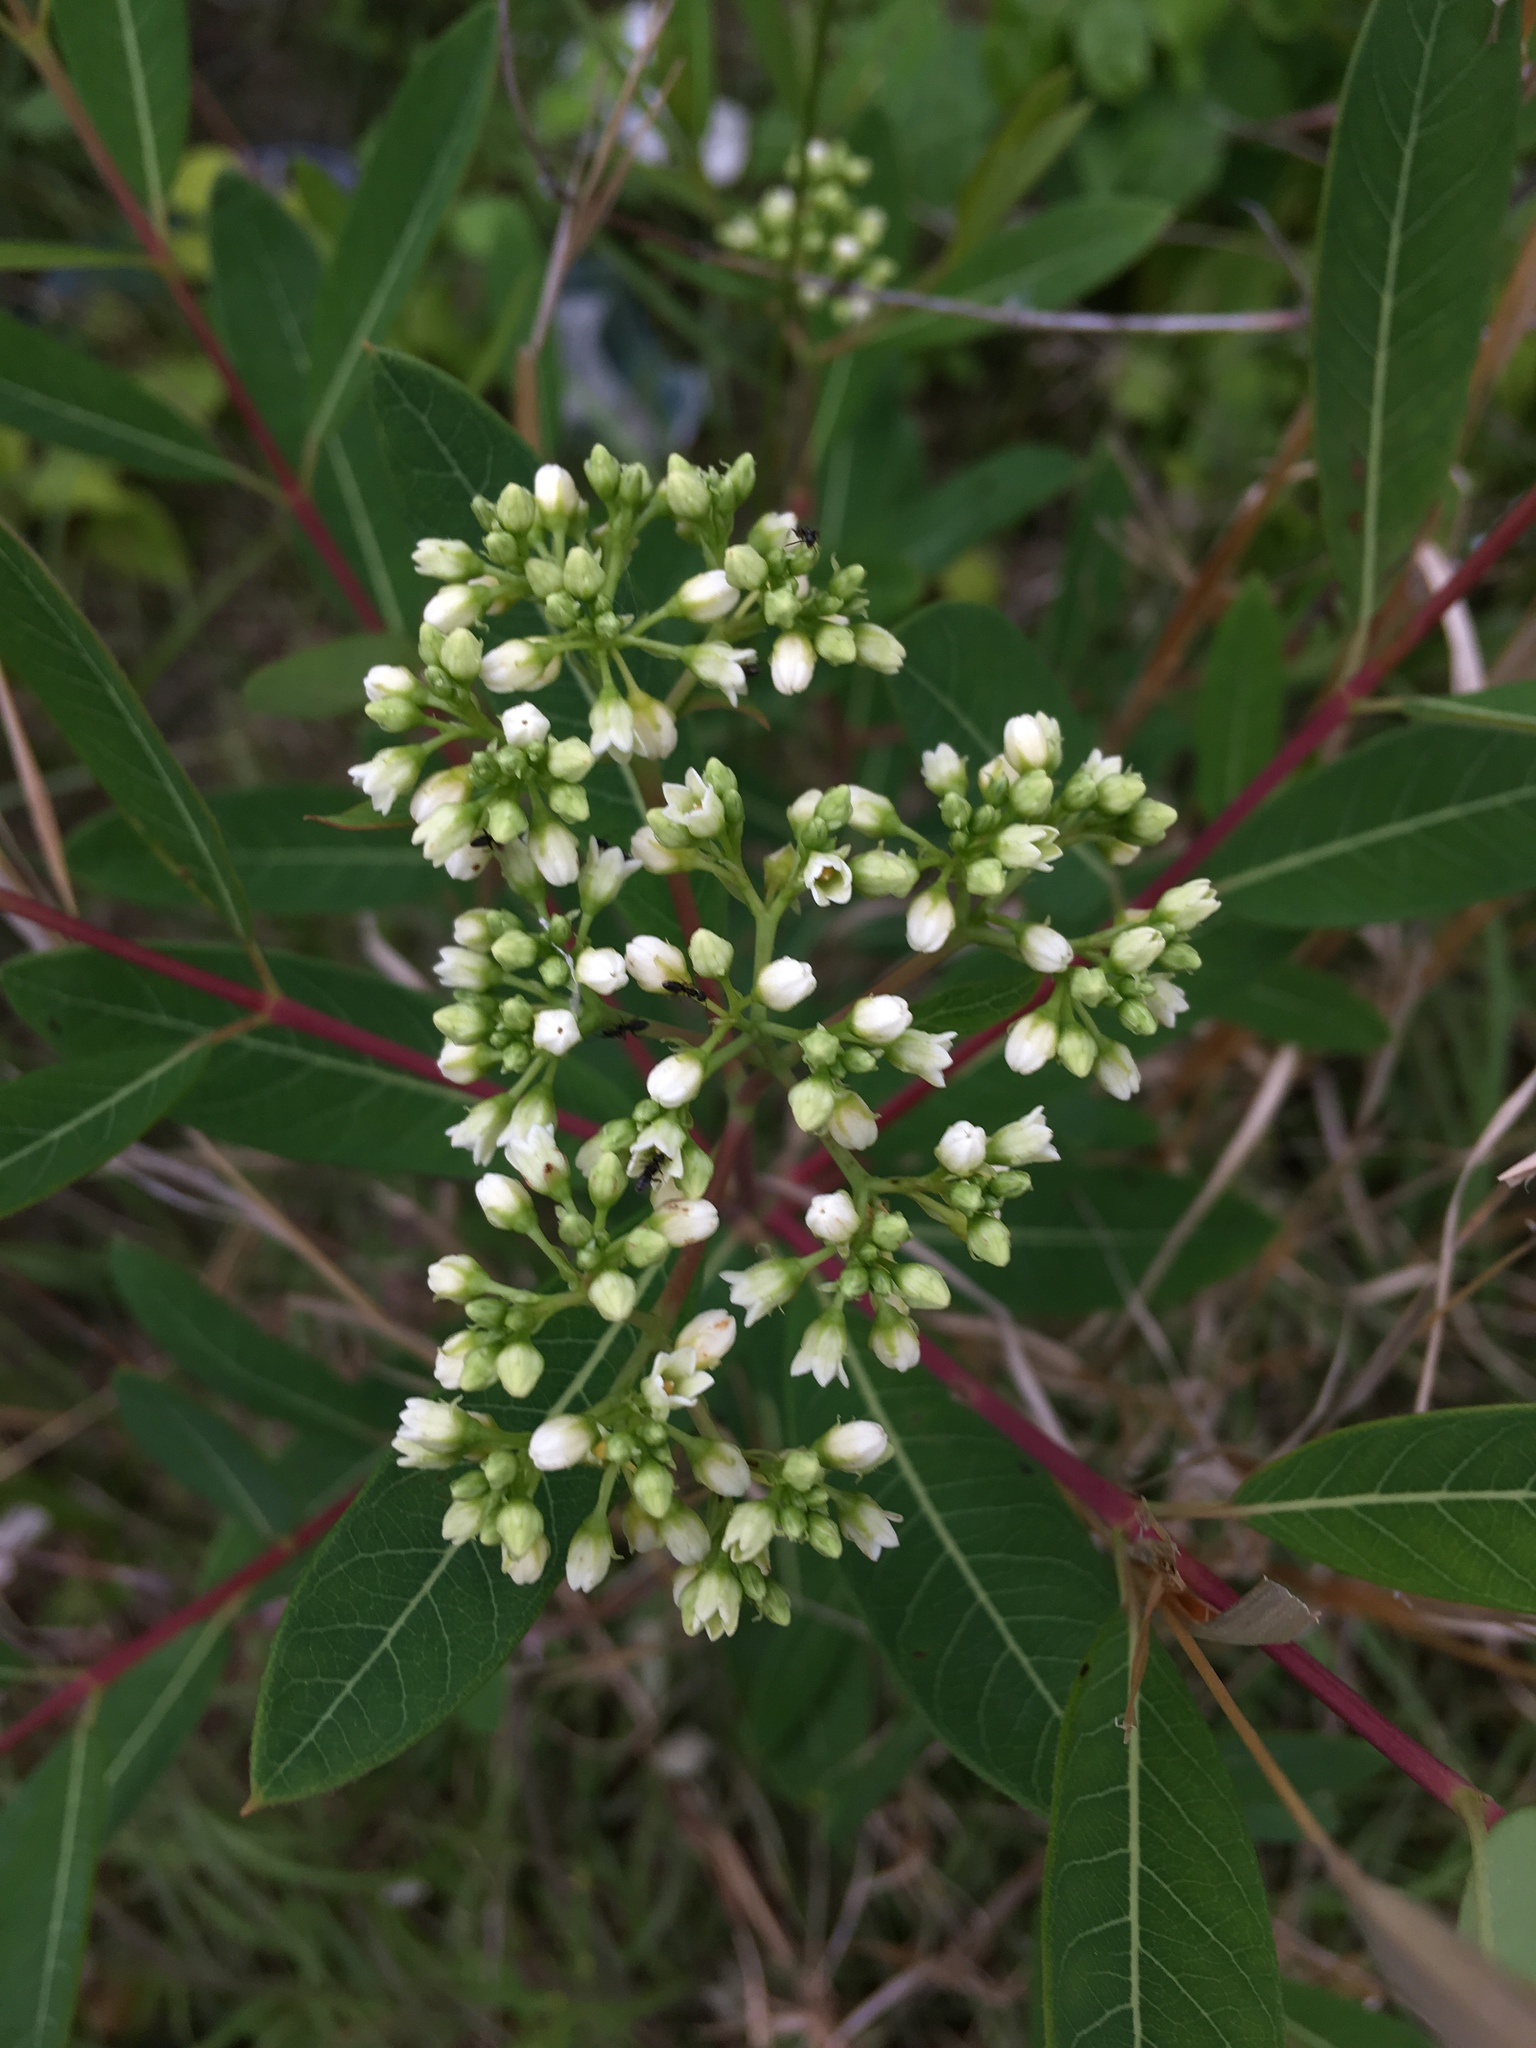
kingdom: Plantae
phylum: Tracheophyta
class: Magnoliopsida
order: Gentianales
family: Apocynaceae
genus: Apocynum
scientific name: Apocynum cannabinum
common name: Hemp dogbane
